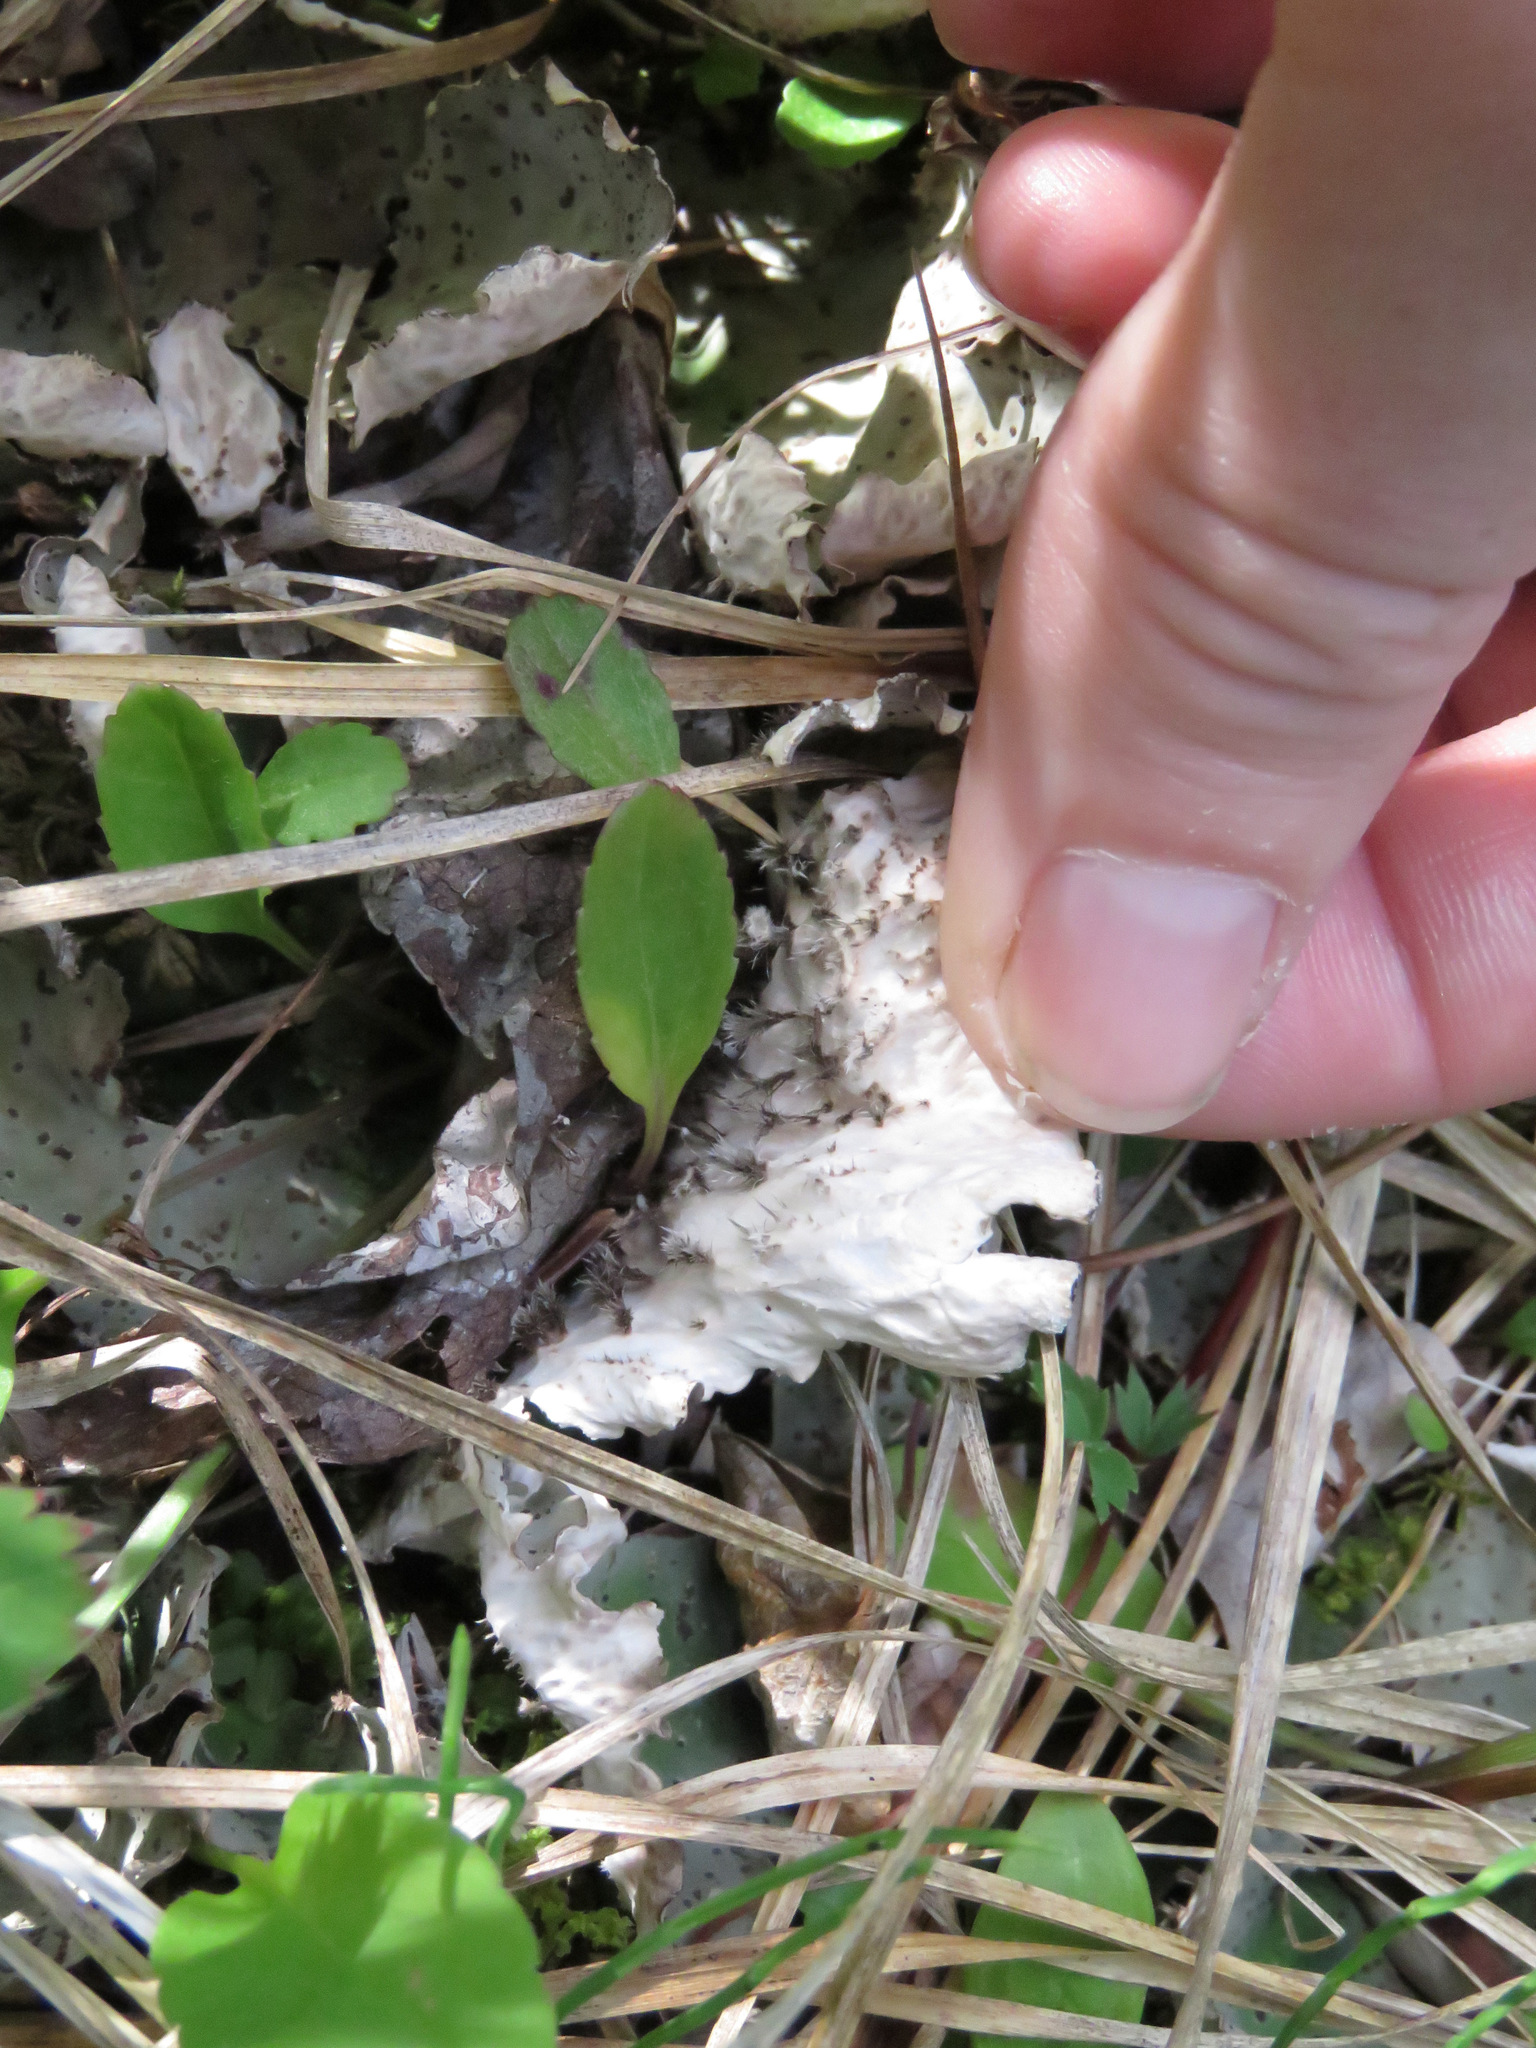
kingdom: Fungi
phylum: Ascomycota
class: Lecanoromycetes
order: Peltigerales
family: Peltigeraceae
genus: Peltigera
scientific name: Peltigera leucophlebia
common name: Ruffled freckle pelt lichen
